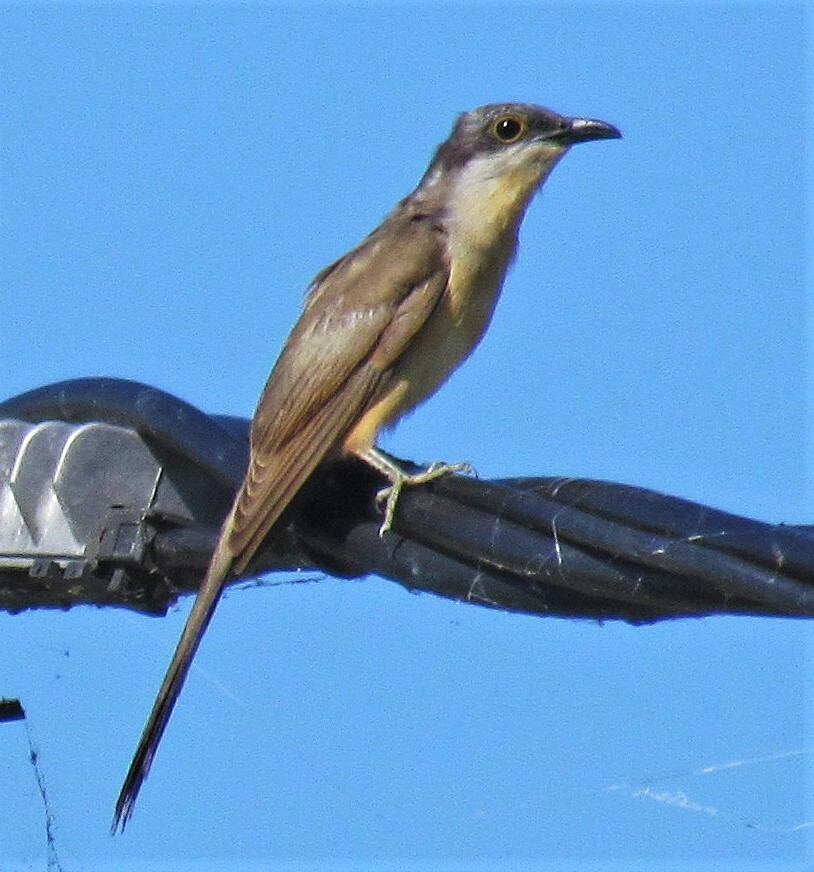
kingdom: Animalia
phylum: Chordata
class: Aves
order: Cuculiformes
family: Cuculidae
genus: Coccyzus
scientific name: Coccyzus melacoryphus
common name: Dark-billed cuckoo
